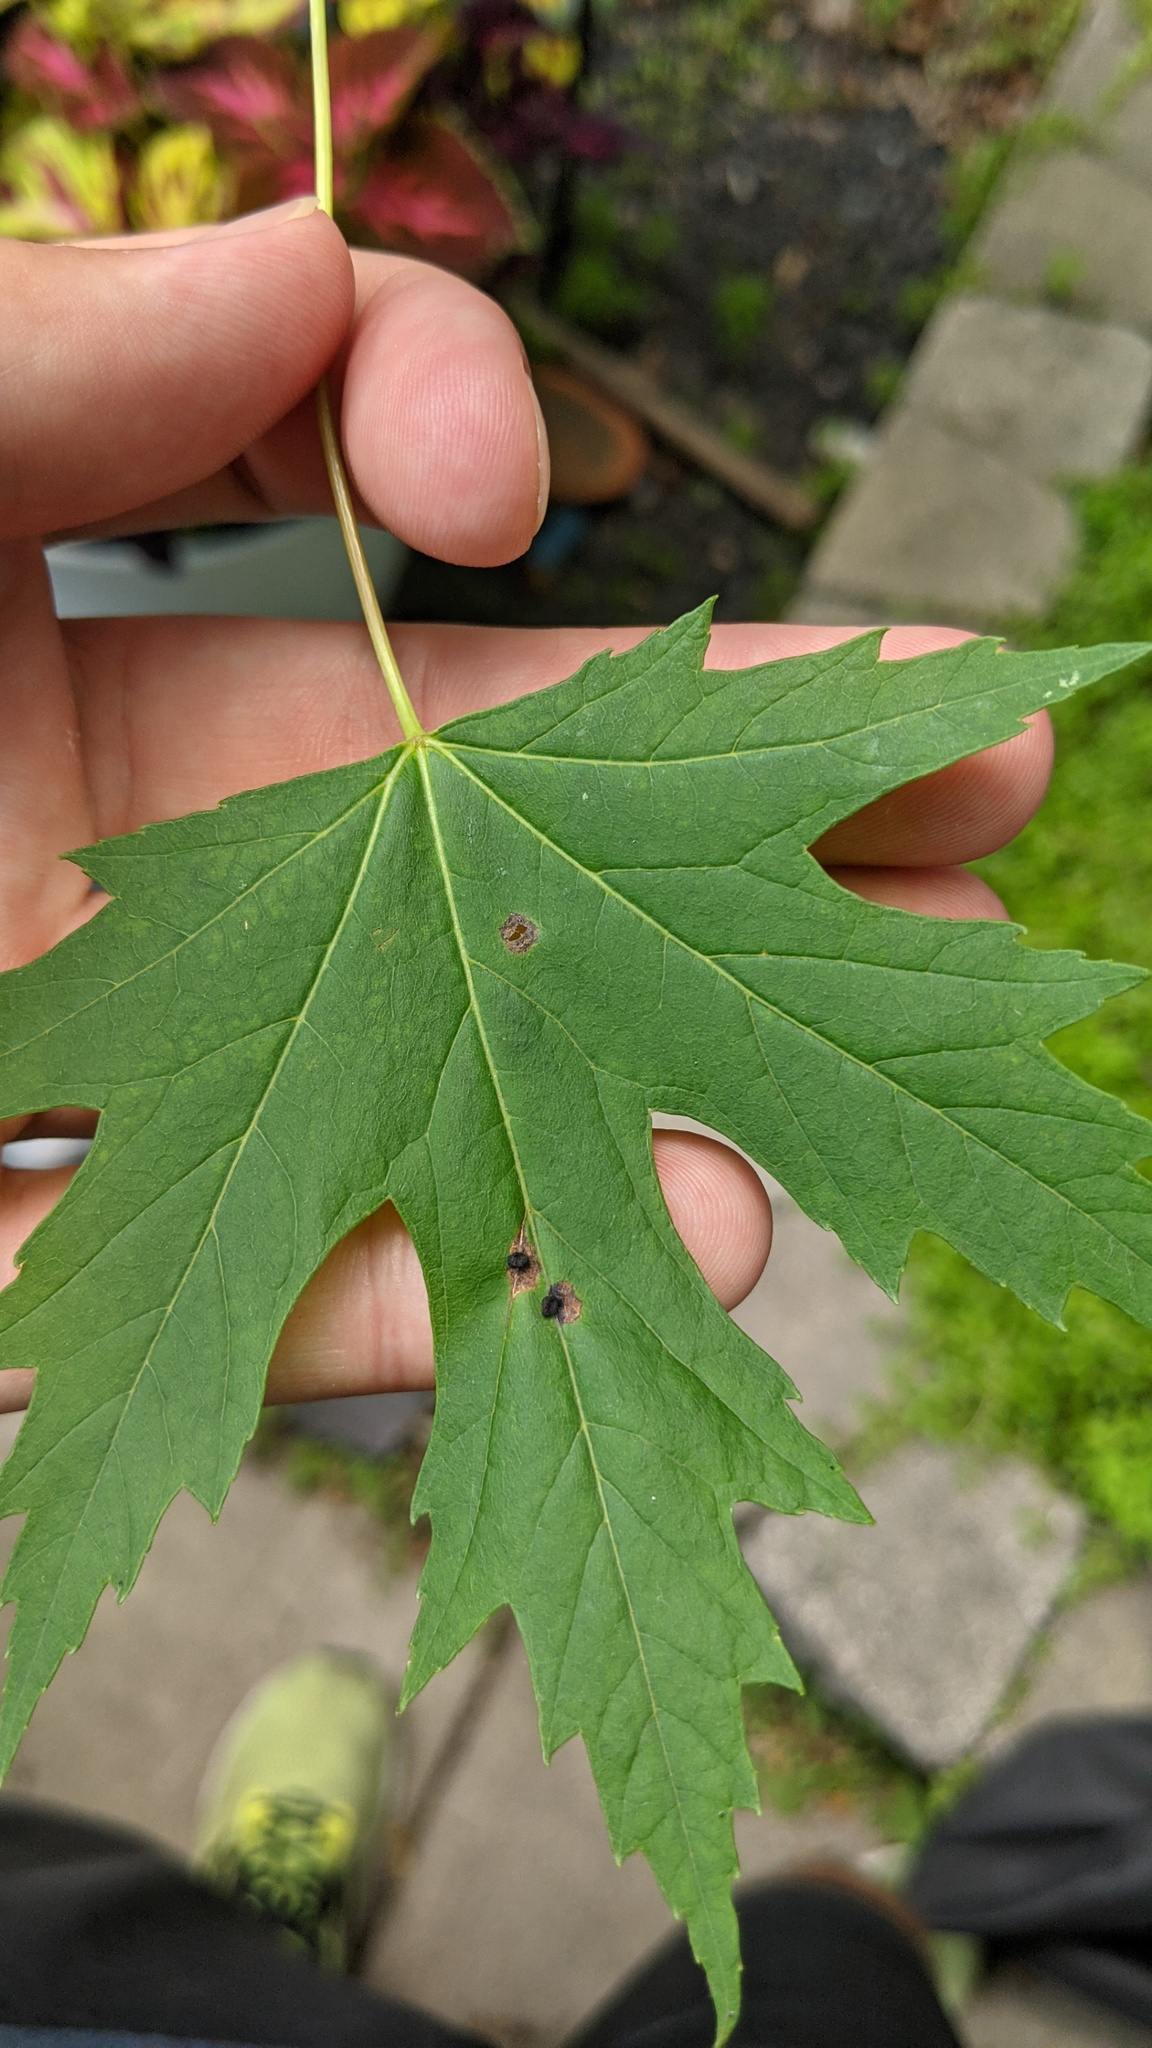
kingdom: Animalia
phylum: Arthropoda
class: Arachnida
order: Trombidiformes
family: Eriophyidae
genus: Vasates
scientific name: Vasates quadripedes
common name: Maple bladder gall mite
